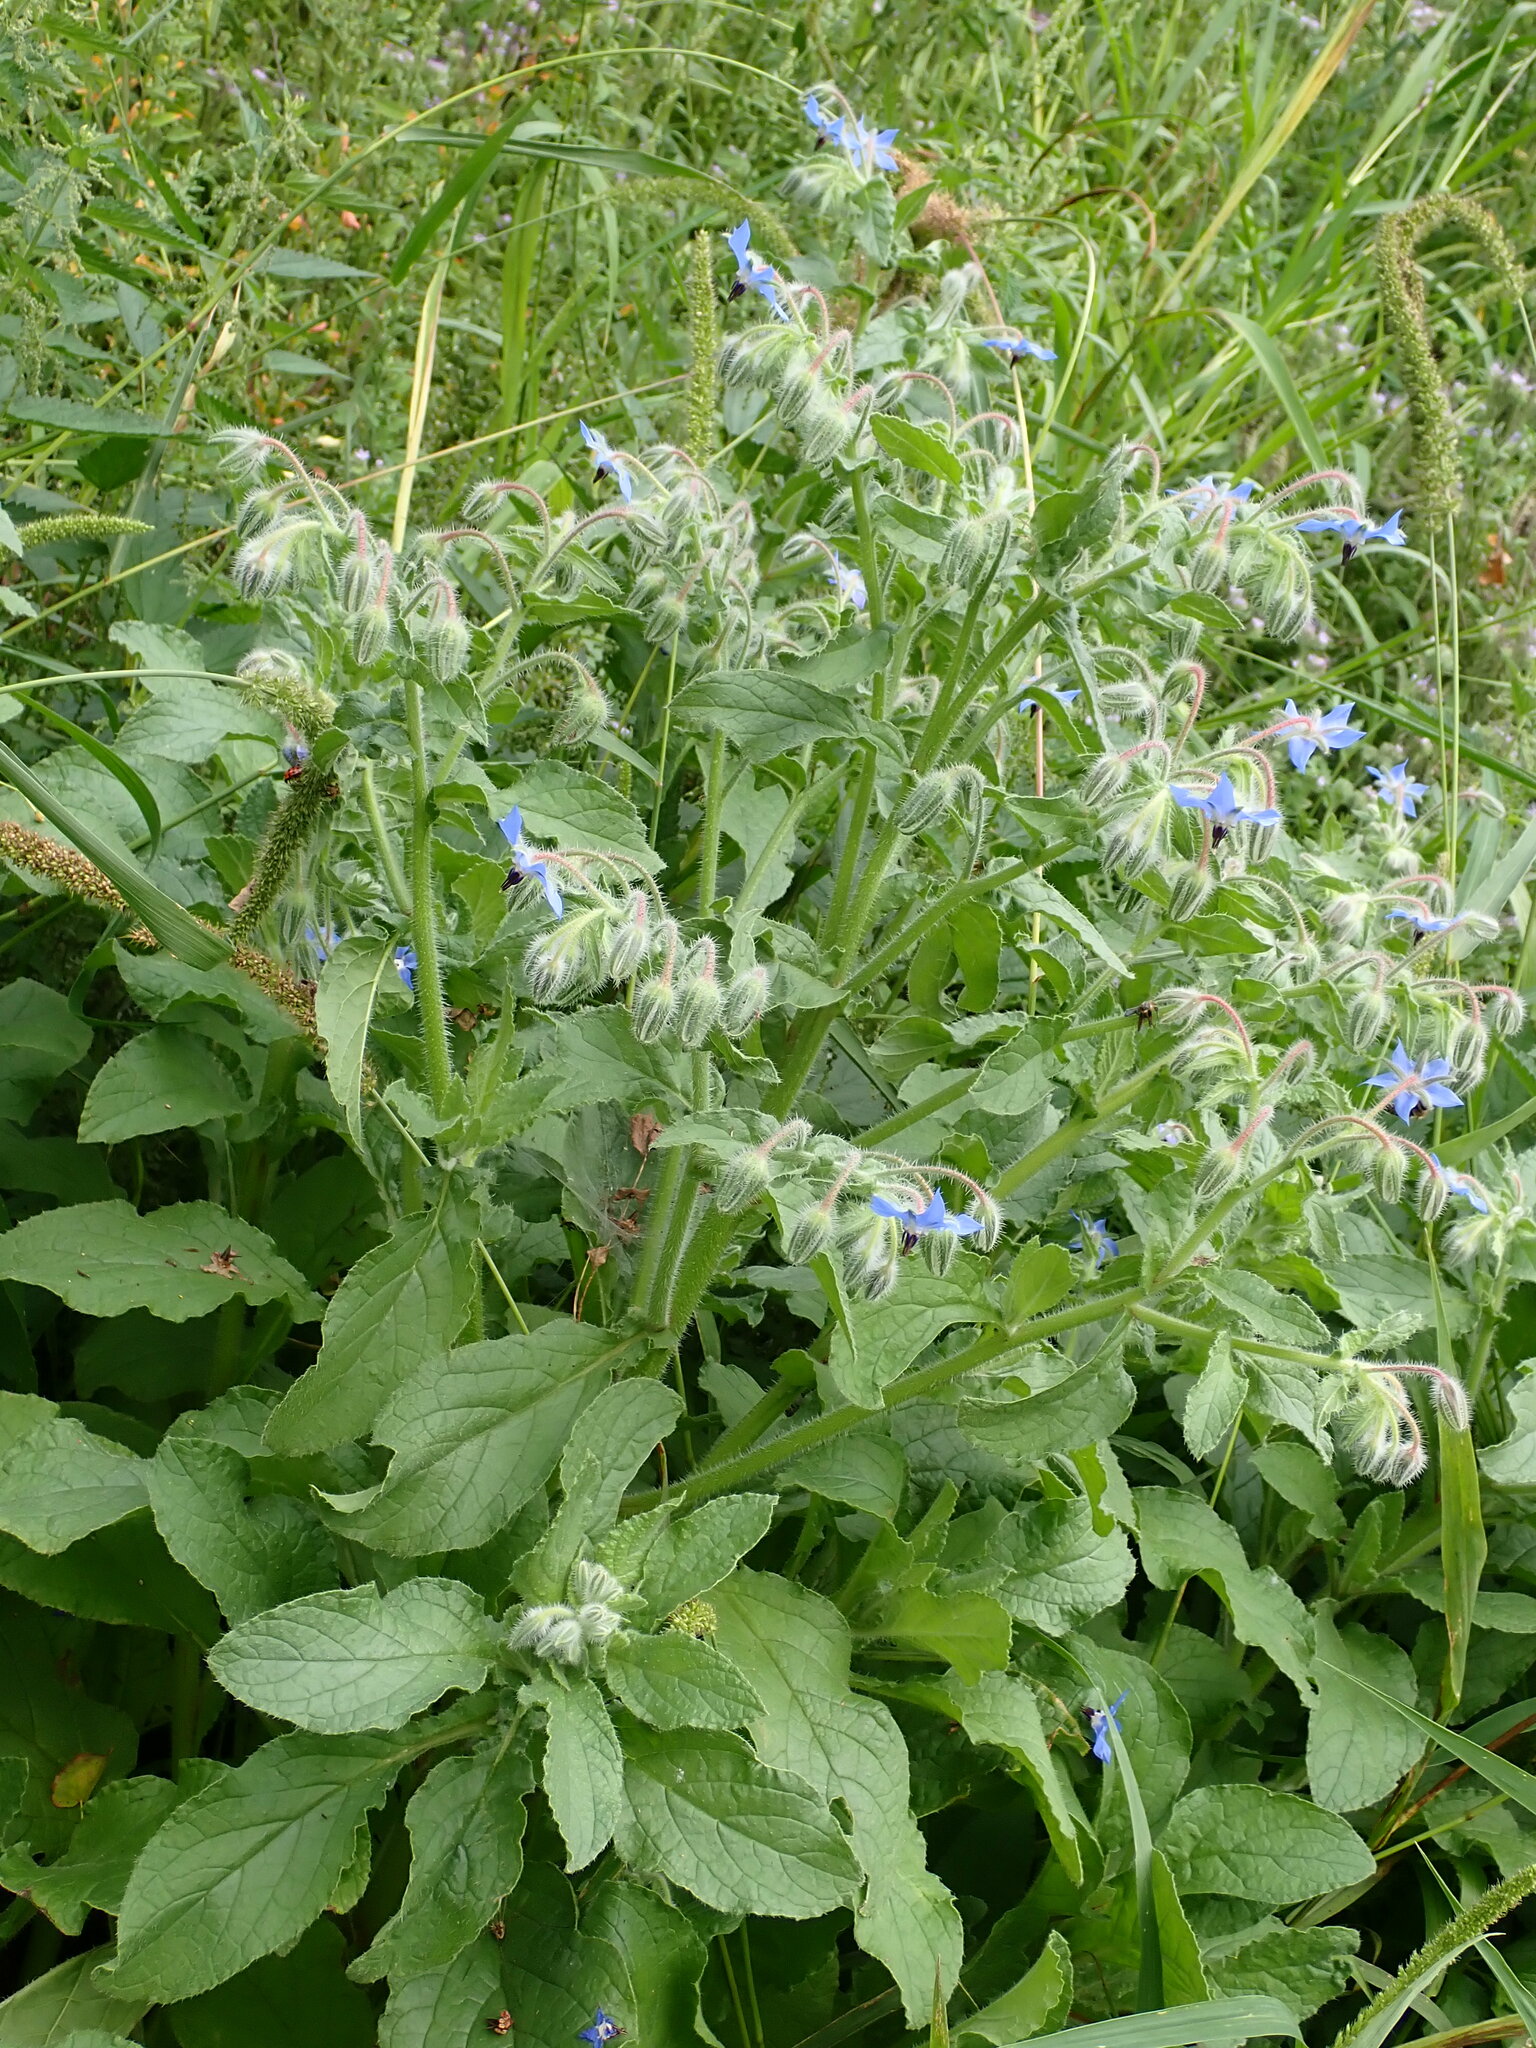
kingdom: Plantae
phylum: Tracheophyta
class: Magnoliopsida
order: Boraginales
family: Boraginaceae
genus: Borago
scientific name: Borago officinalis
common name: Borage
